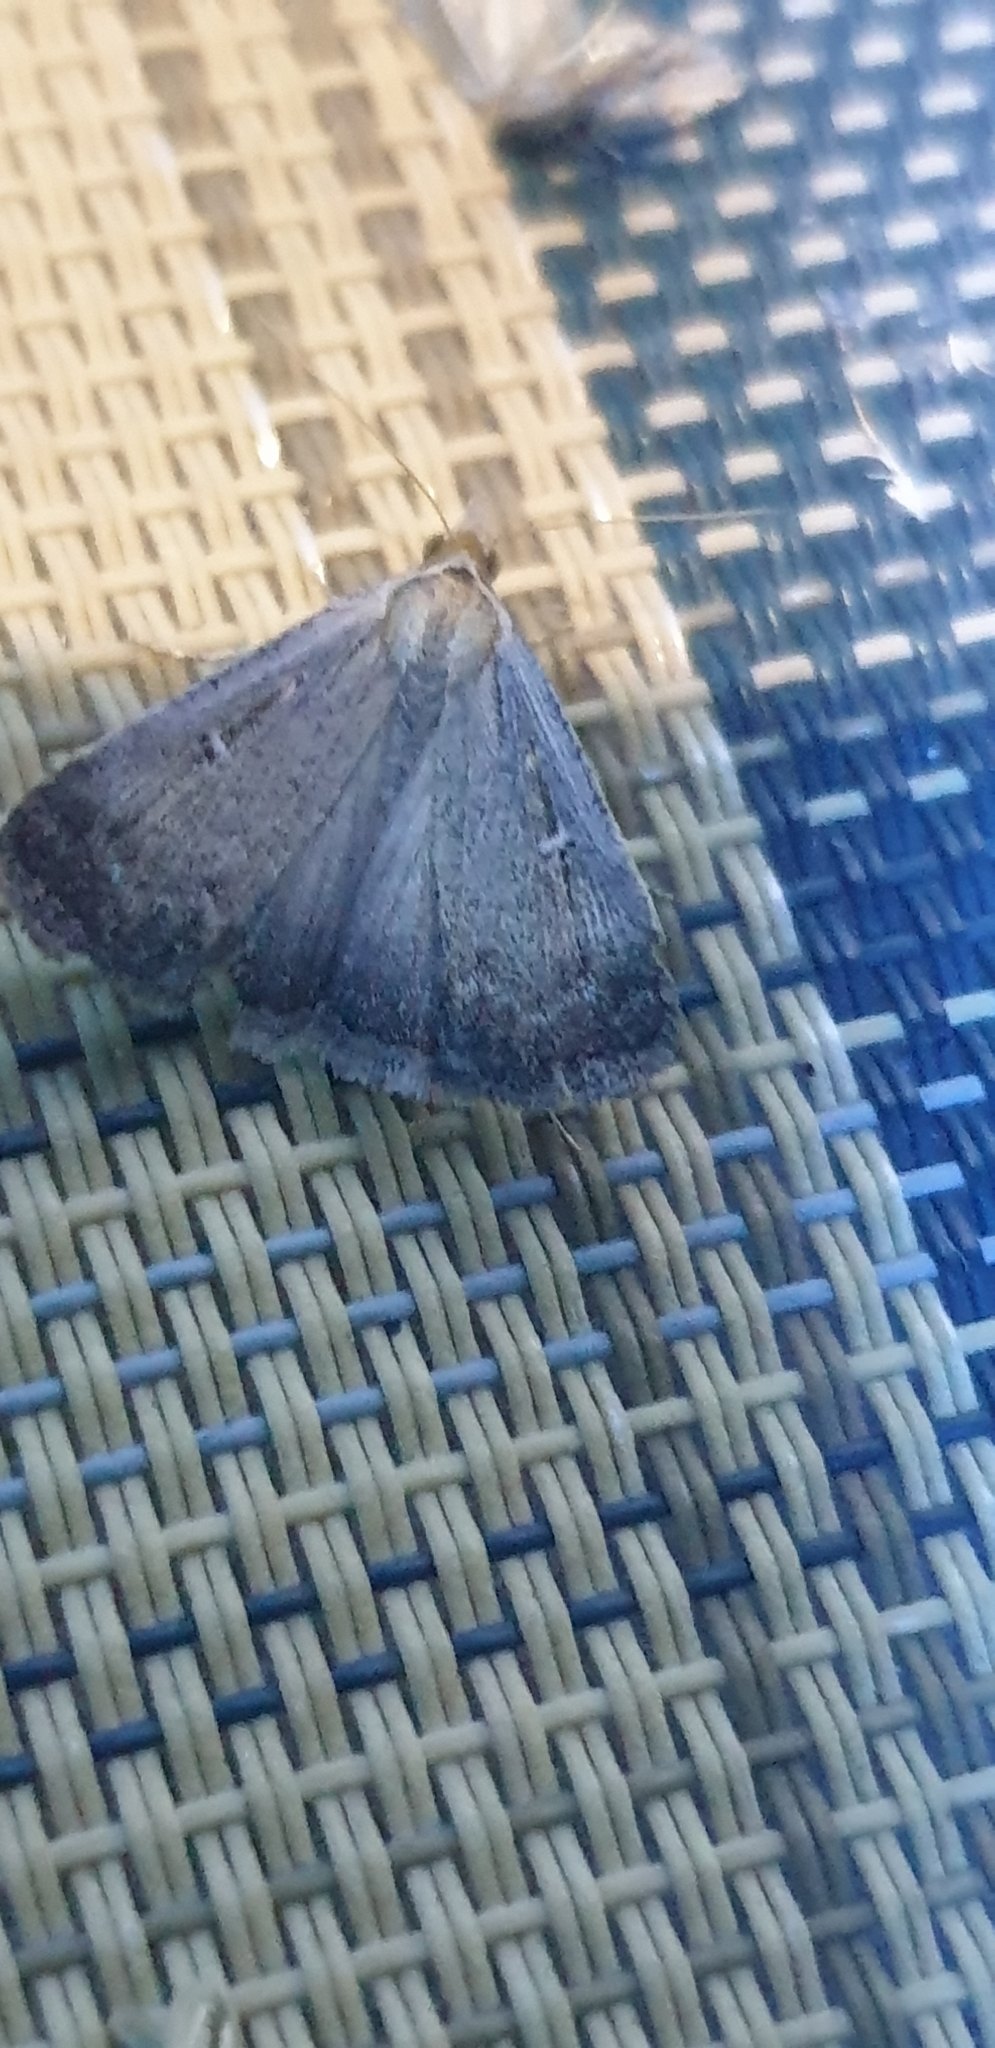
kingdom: Animalia
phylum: Arthropoda
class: Insecta
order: Lepidoptera
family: Noctuidae
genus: Tathorhynchus
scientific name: Tathorhynchus fallax
